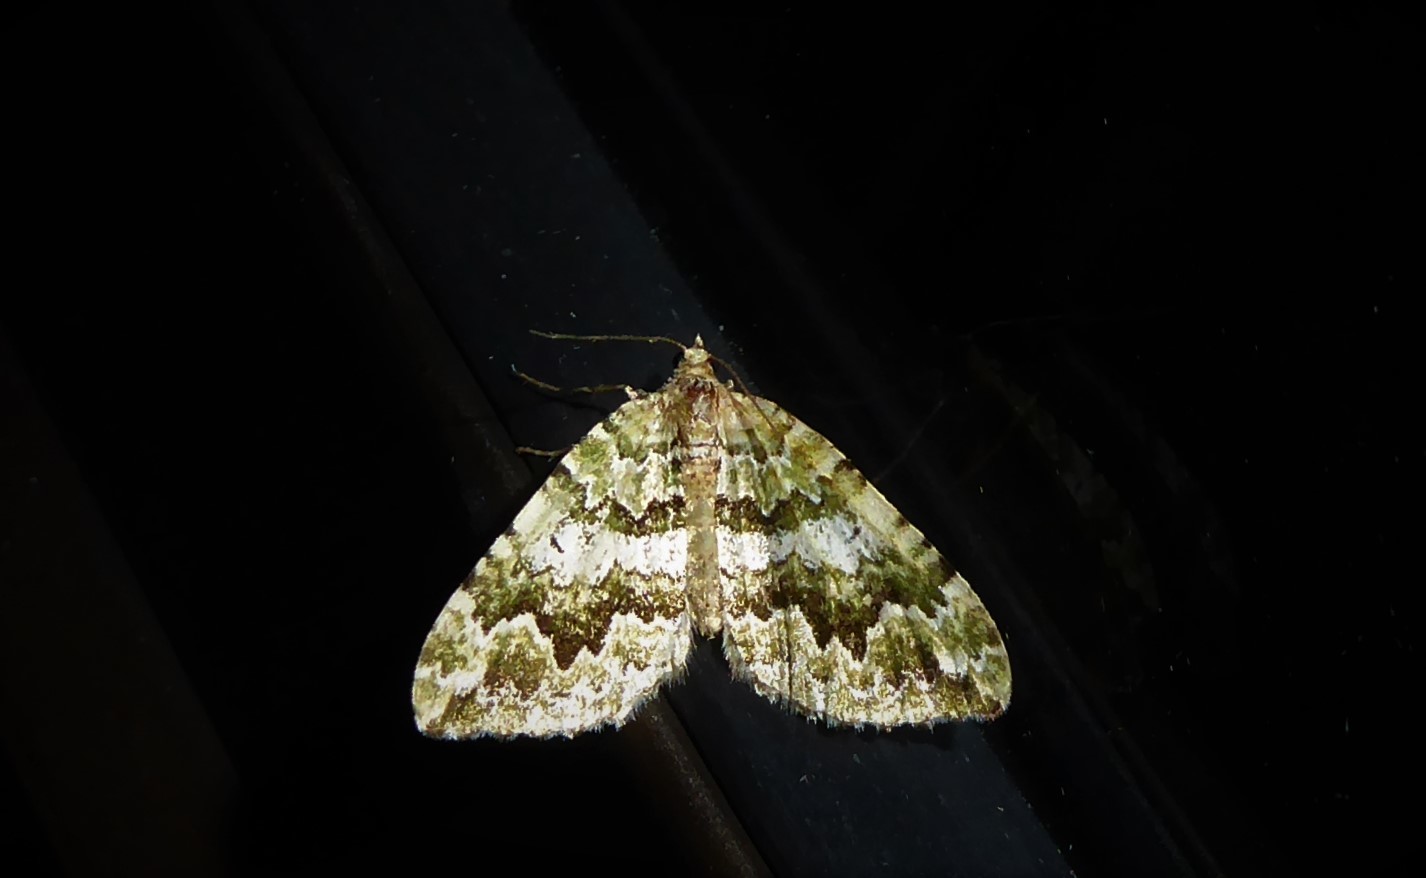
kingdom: Animalia
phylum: Arthropoda
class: Insecta
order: Lepidoptera
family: Geometridae
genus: Asaphodes
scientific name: Asaphodes beata
